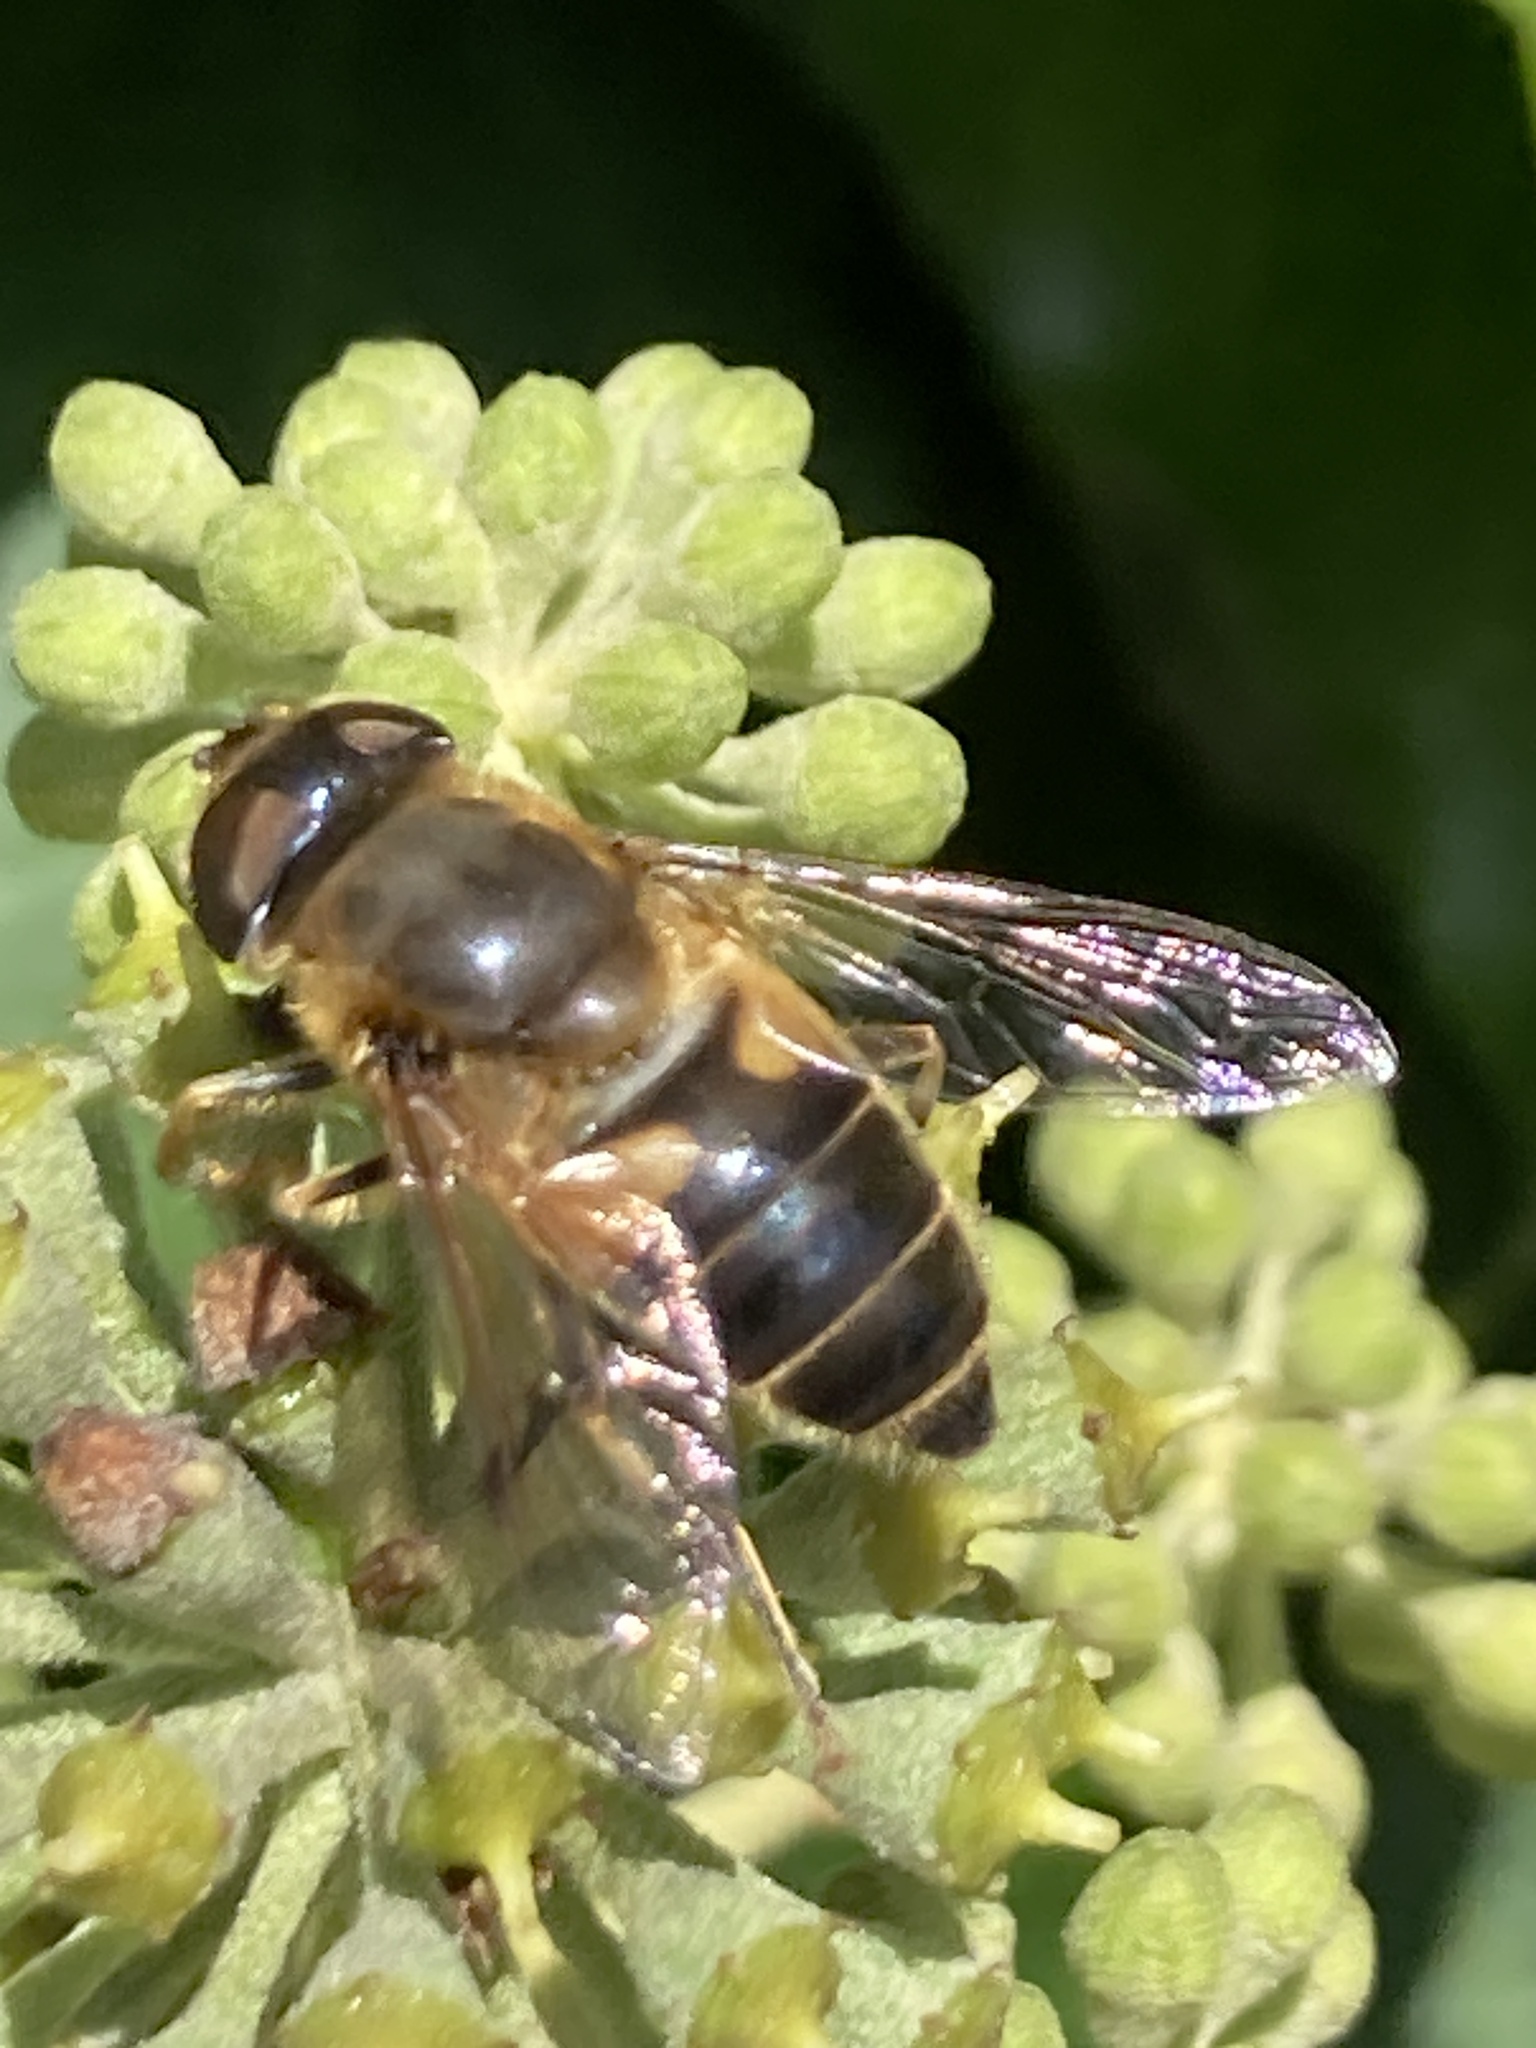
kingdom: Animalia
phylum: Arthropoda
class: Insecta
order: Diptera
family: Syrphidae
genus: Eristalis
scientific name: Eristalis pertinax
